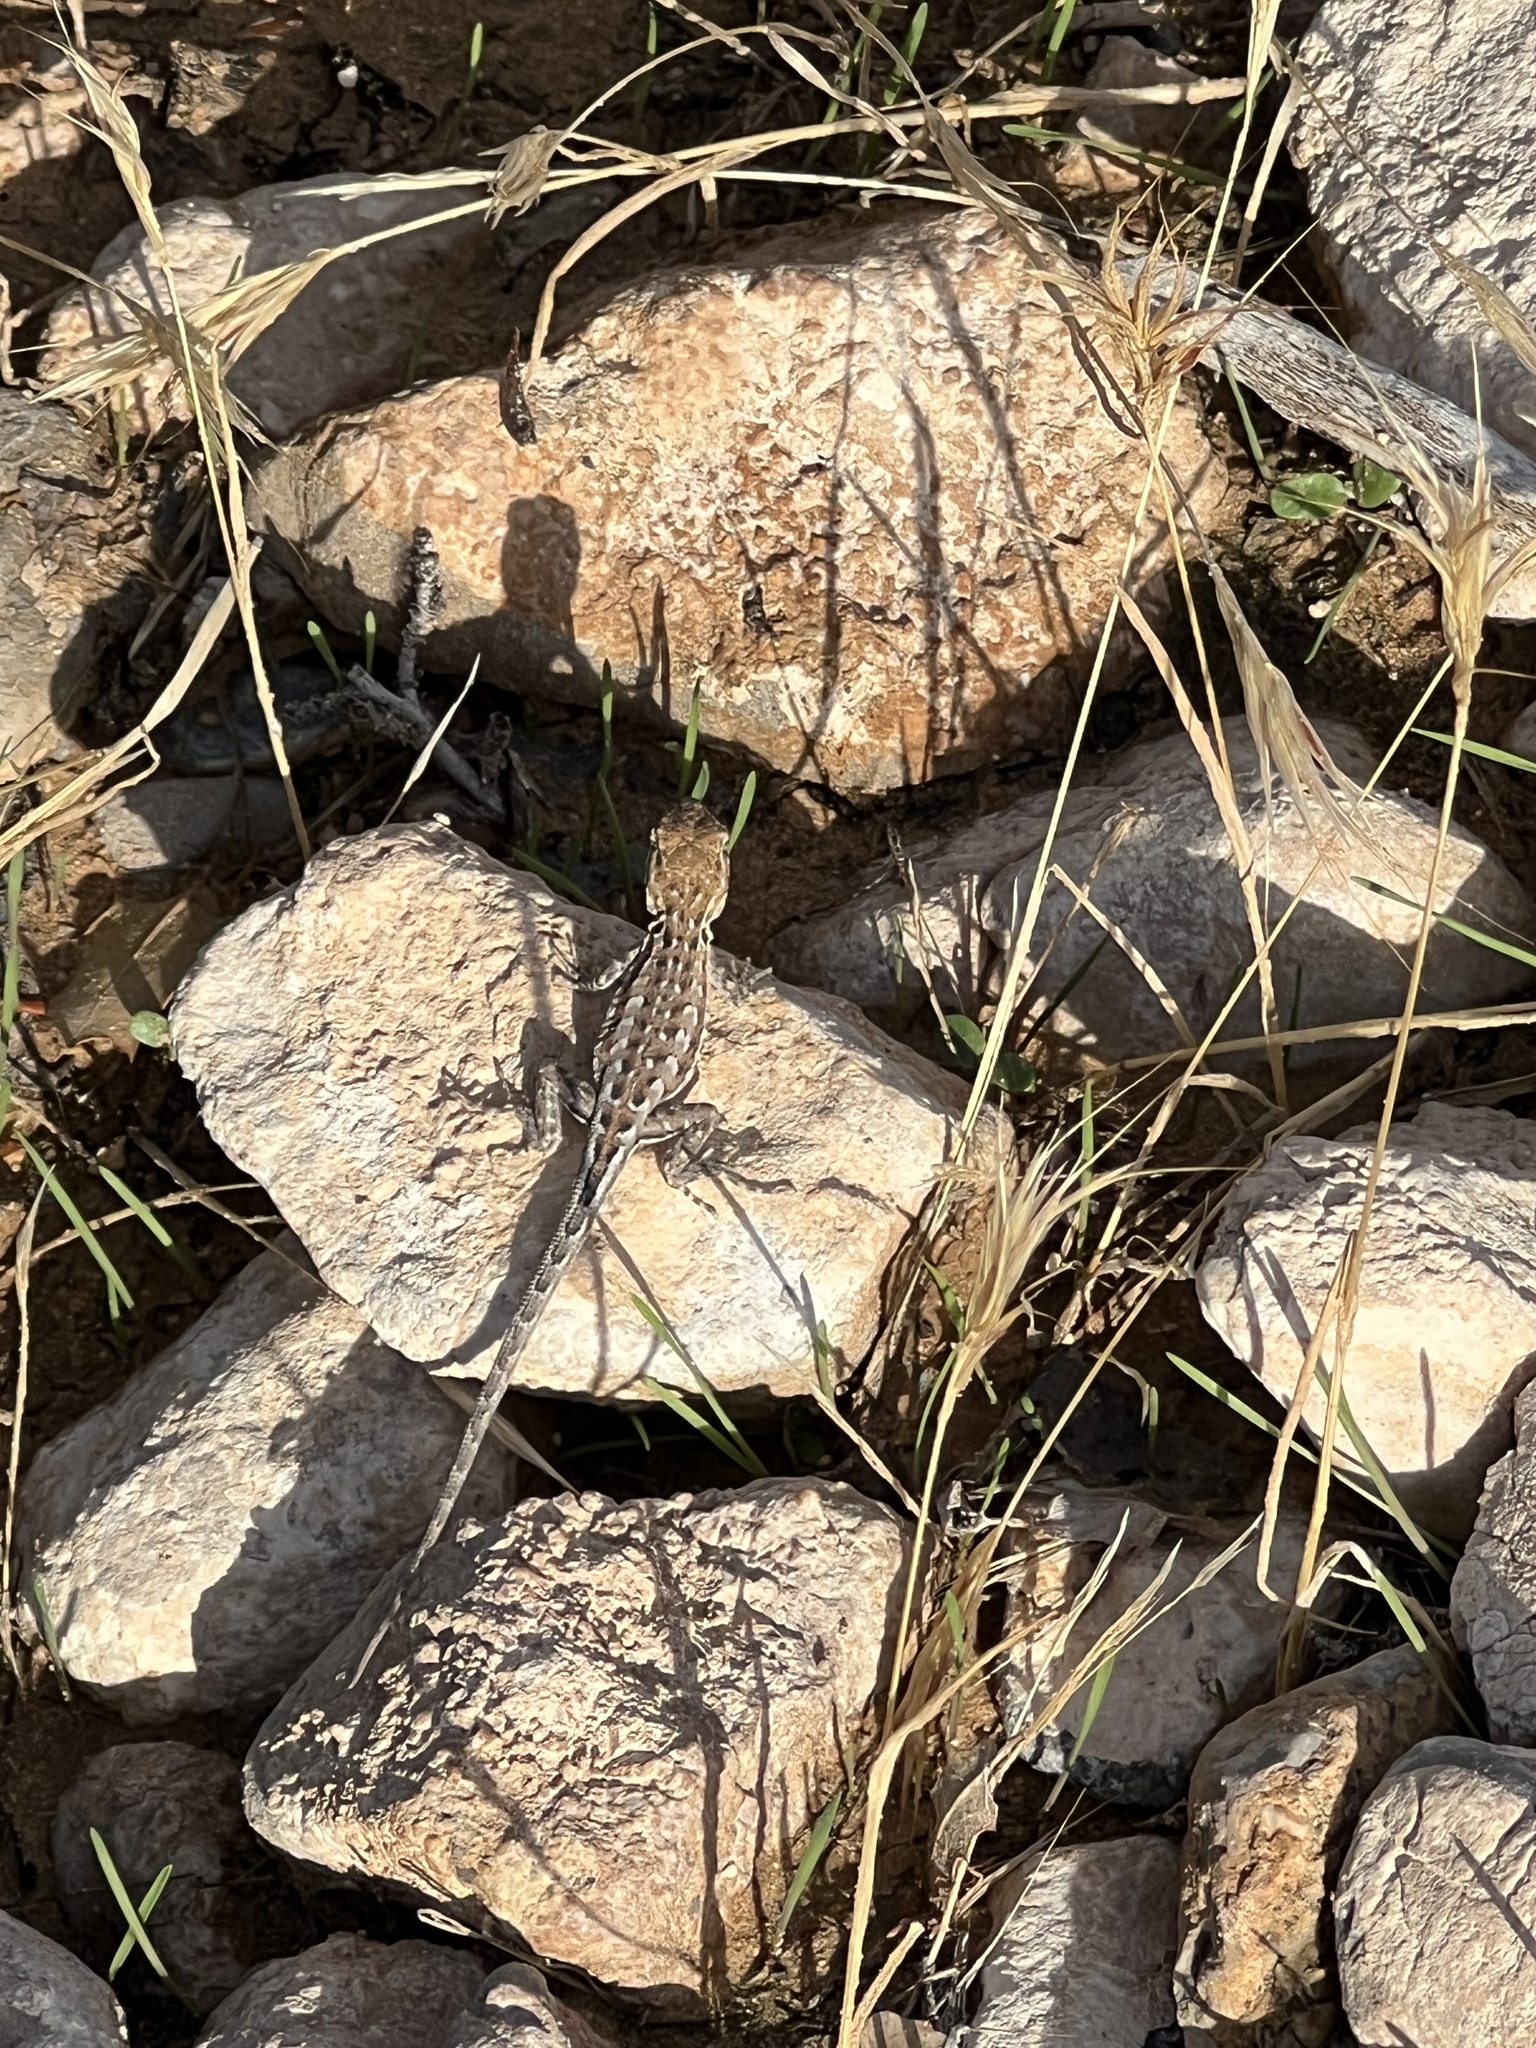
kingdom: Animalia
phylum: Chordata
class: Squamata
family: Phrynosomatidae
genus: Uta
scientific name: Uta stansburiana
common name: Side-blotched lizard
